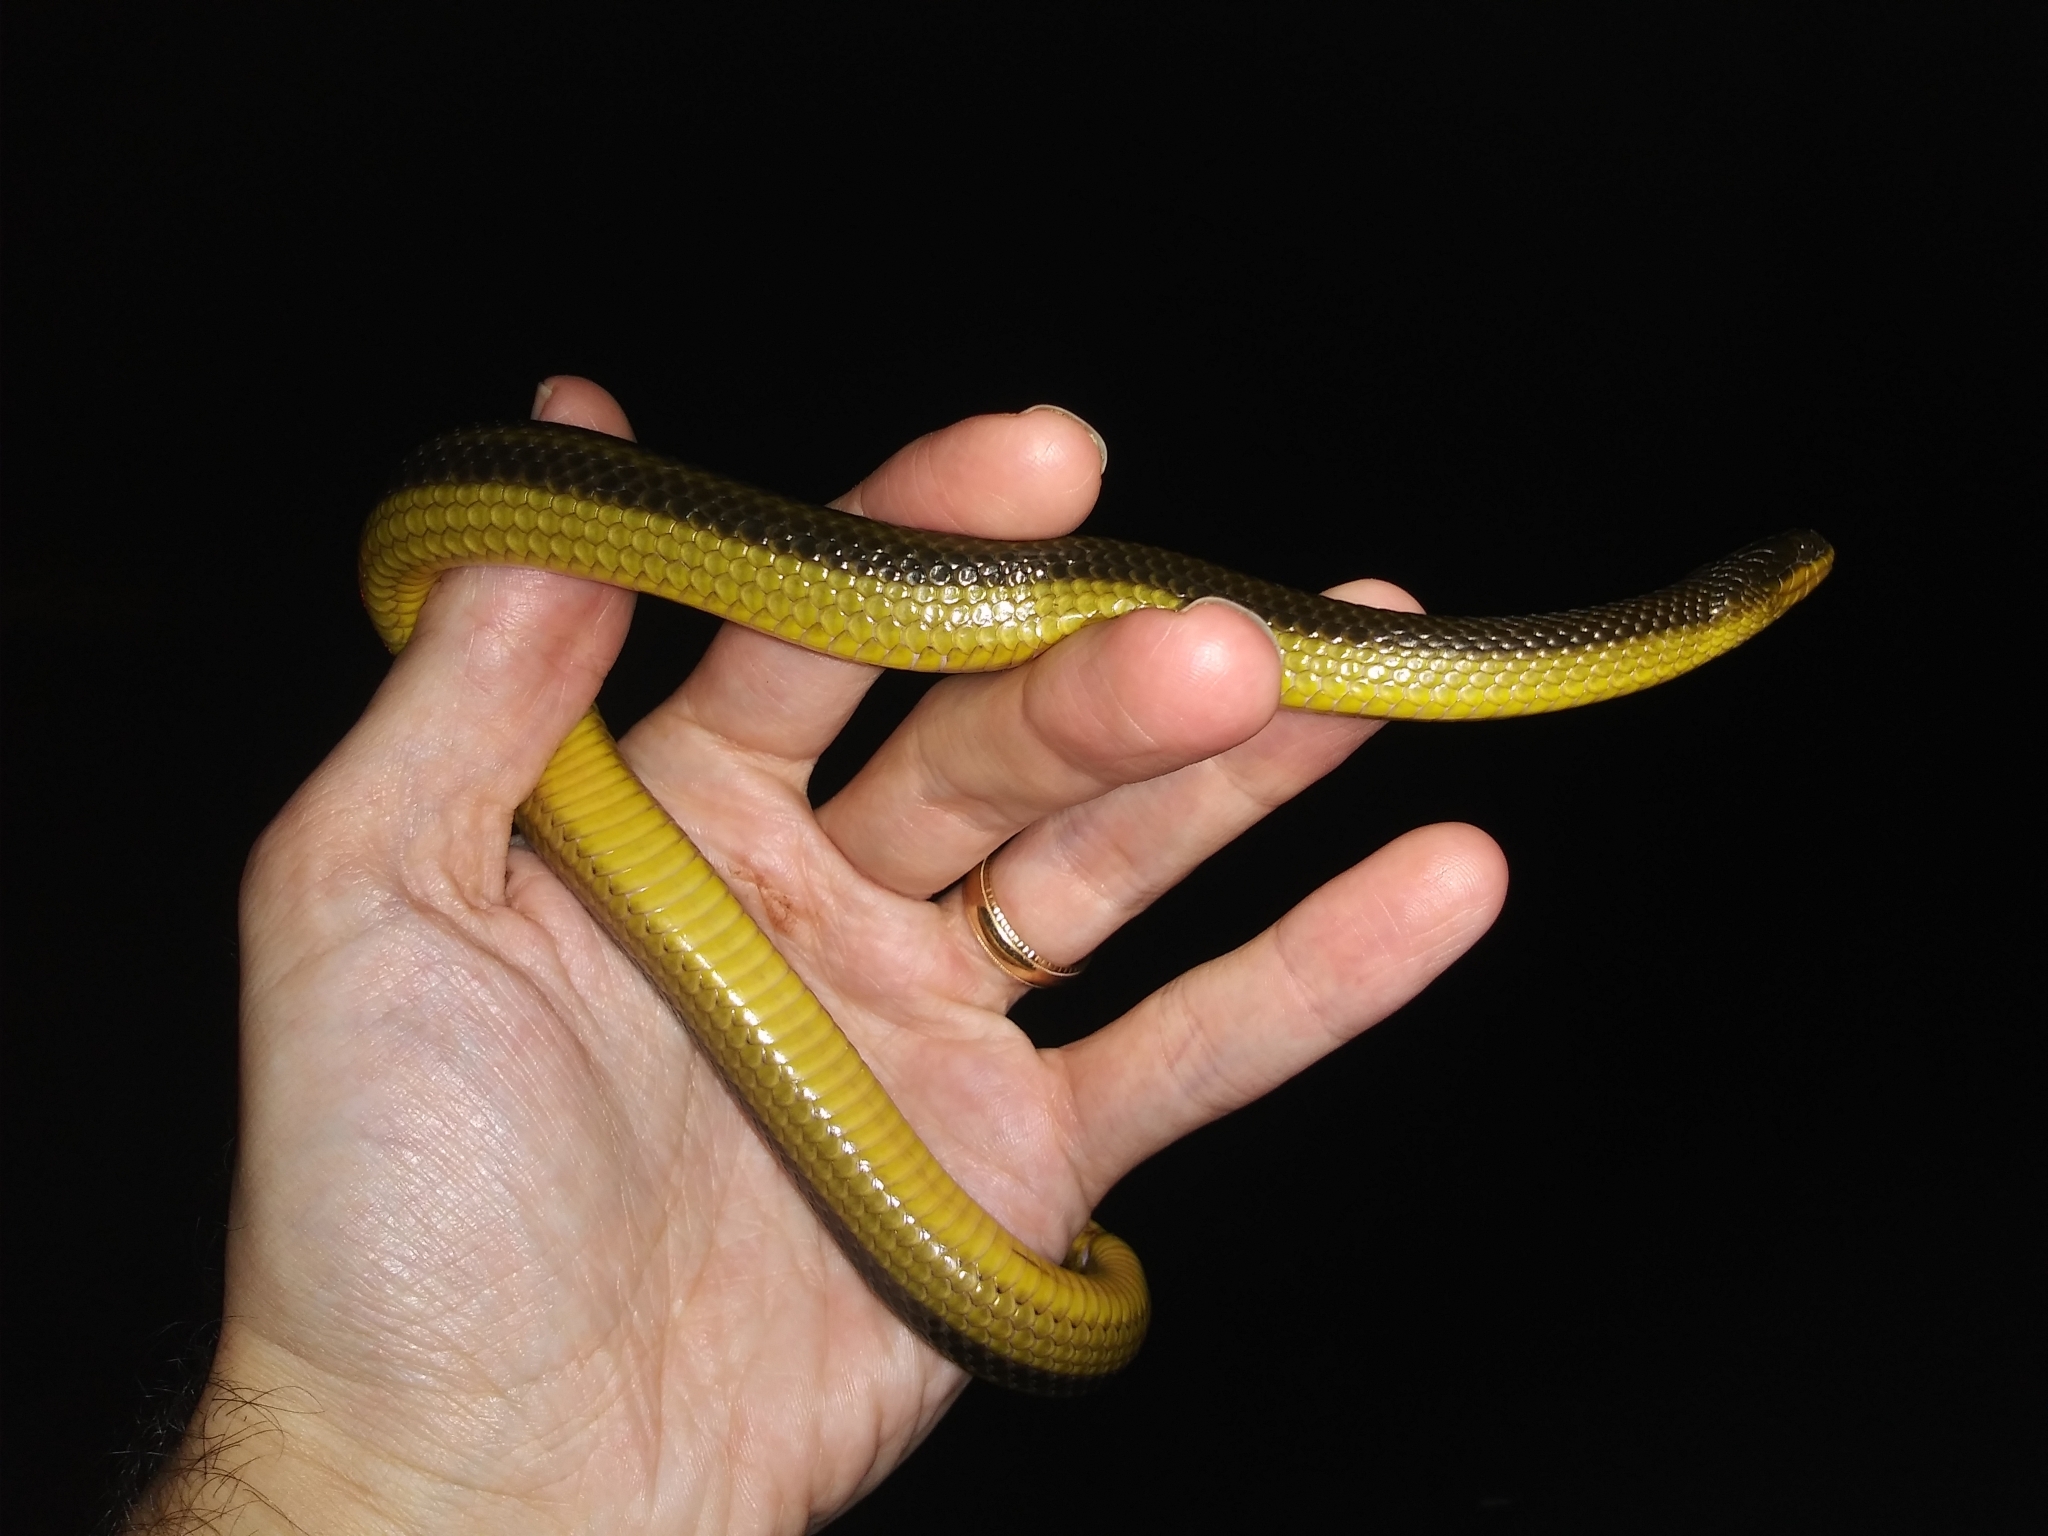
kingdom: Animalia
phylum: Chordata
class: Squamata
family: Colubridae
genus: Liodytes
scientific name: Liodytes alleni
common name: Striped crayfish snake
